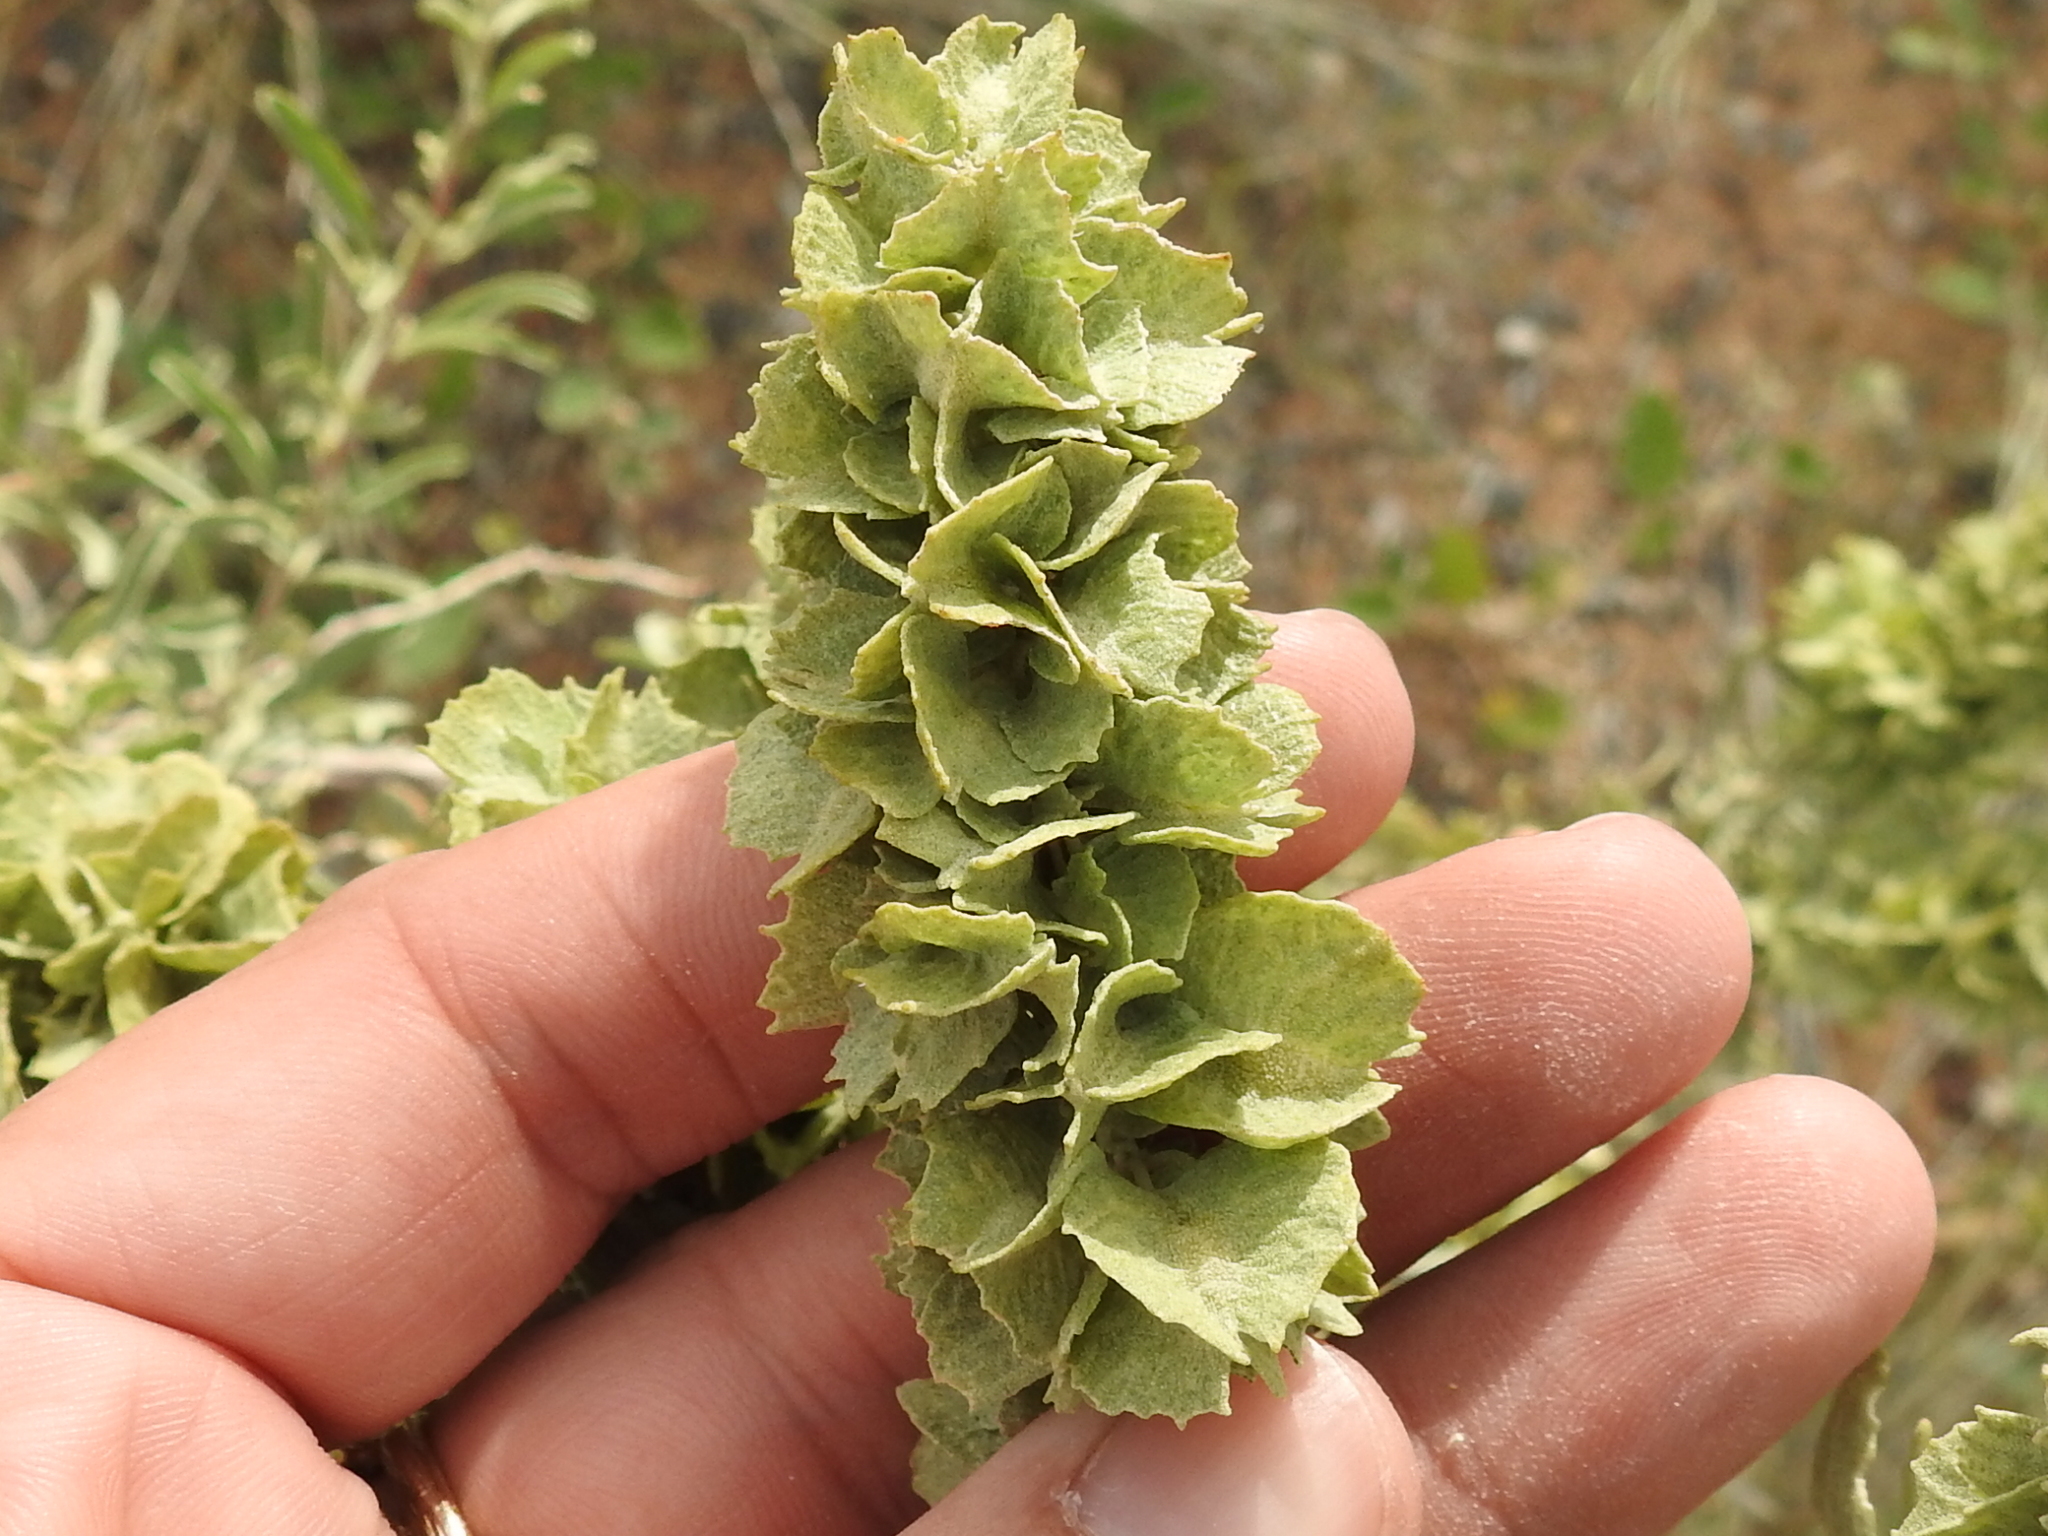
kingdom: Plantae
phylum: Tracheophyta
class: Magnoliopsida
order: Caryophyllales
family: Amaranthaceae
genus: Atriplex
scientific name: Atriplex canescens
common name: Four-wing saltbush
